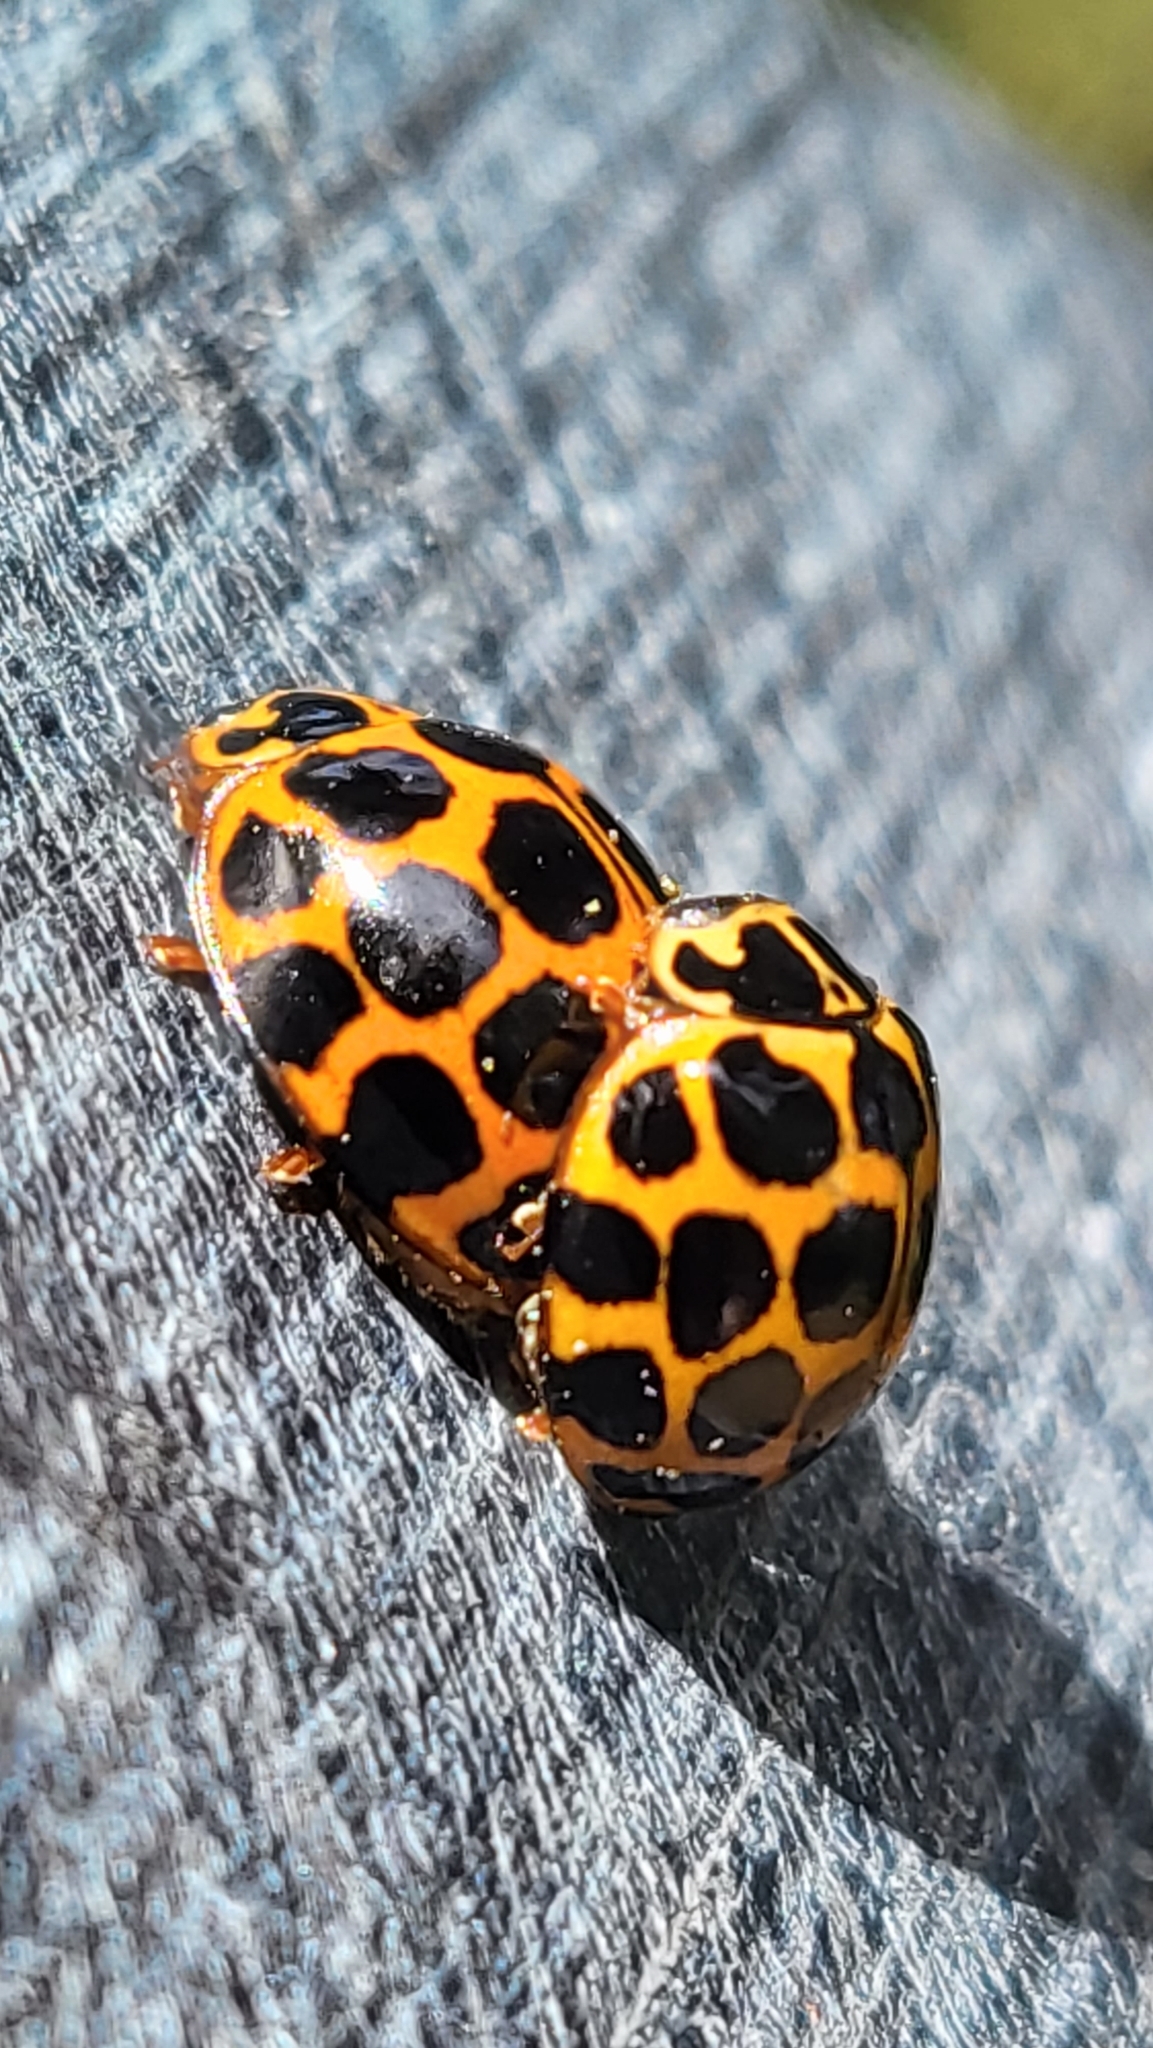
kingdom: Animalia
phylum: Arthropoda
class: Insecta
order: Coleoptera
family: Coccinellidae
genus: Harmonia
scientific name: Harmonia conformis
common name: Common spotted ladybird beetle
